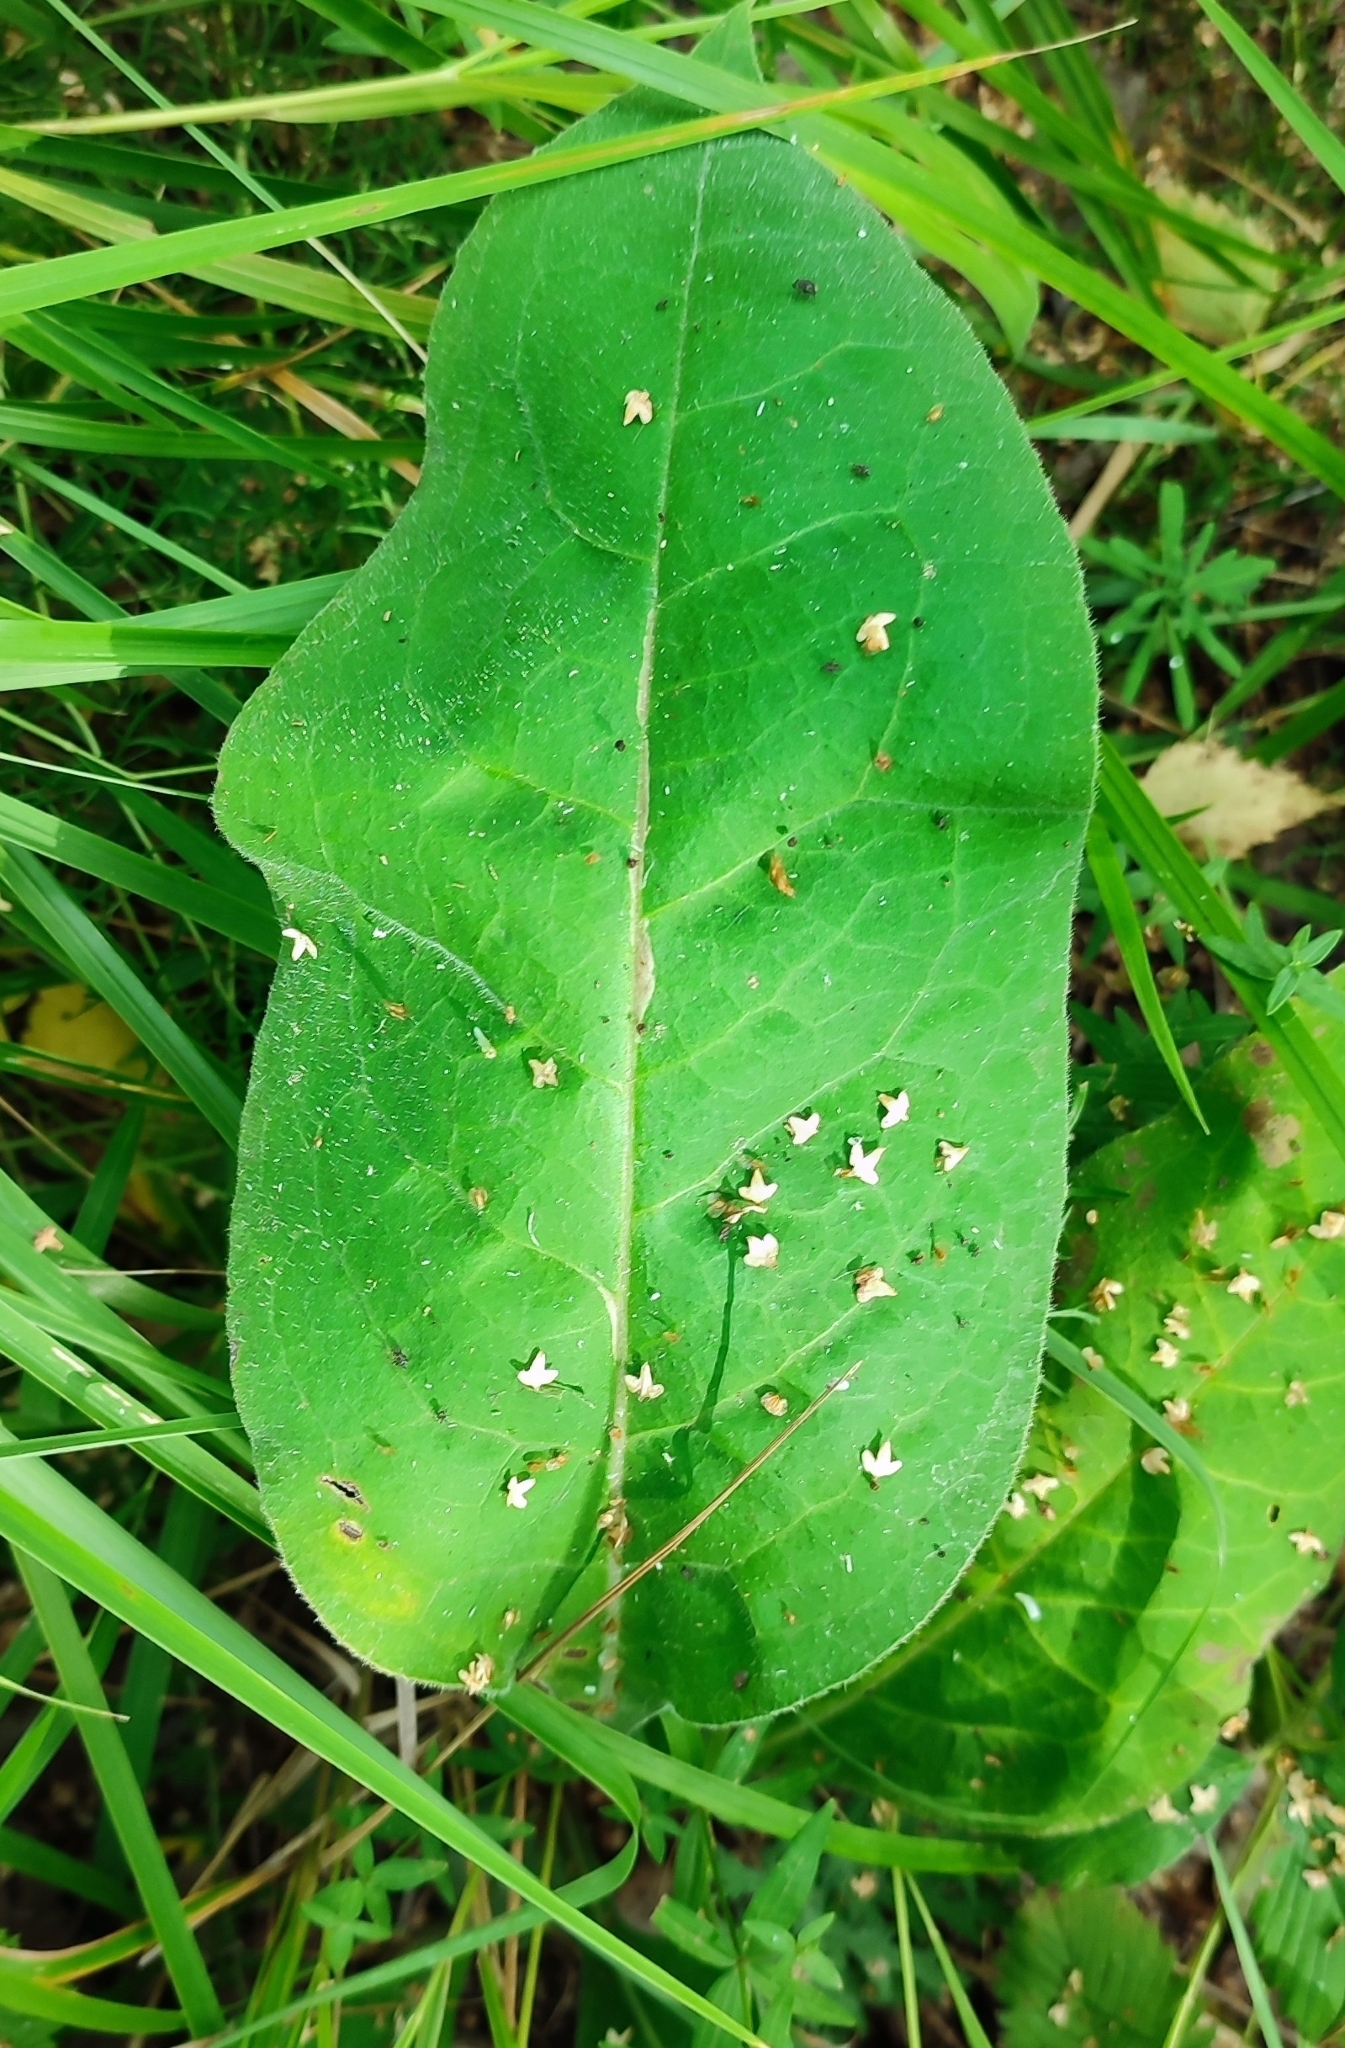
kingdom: Plantae
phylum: Tracheophyta
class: Magnoliopsida
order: Boraginales
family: Boraginaceae
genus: Pulmonaria
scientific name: Pulmonaria mollis
